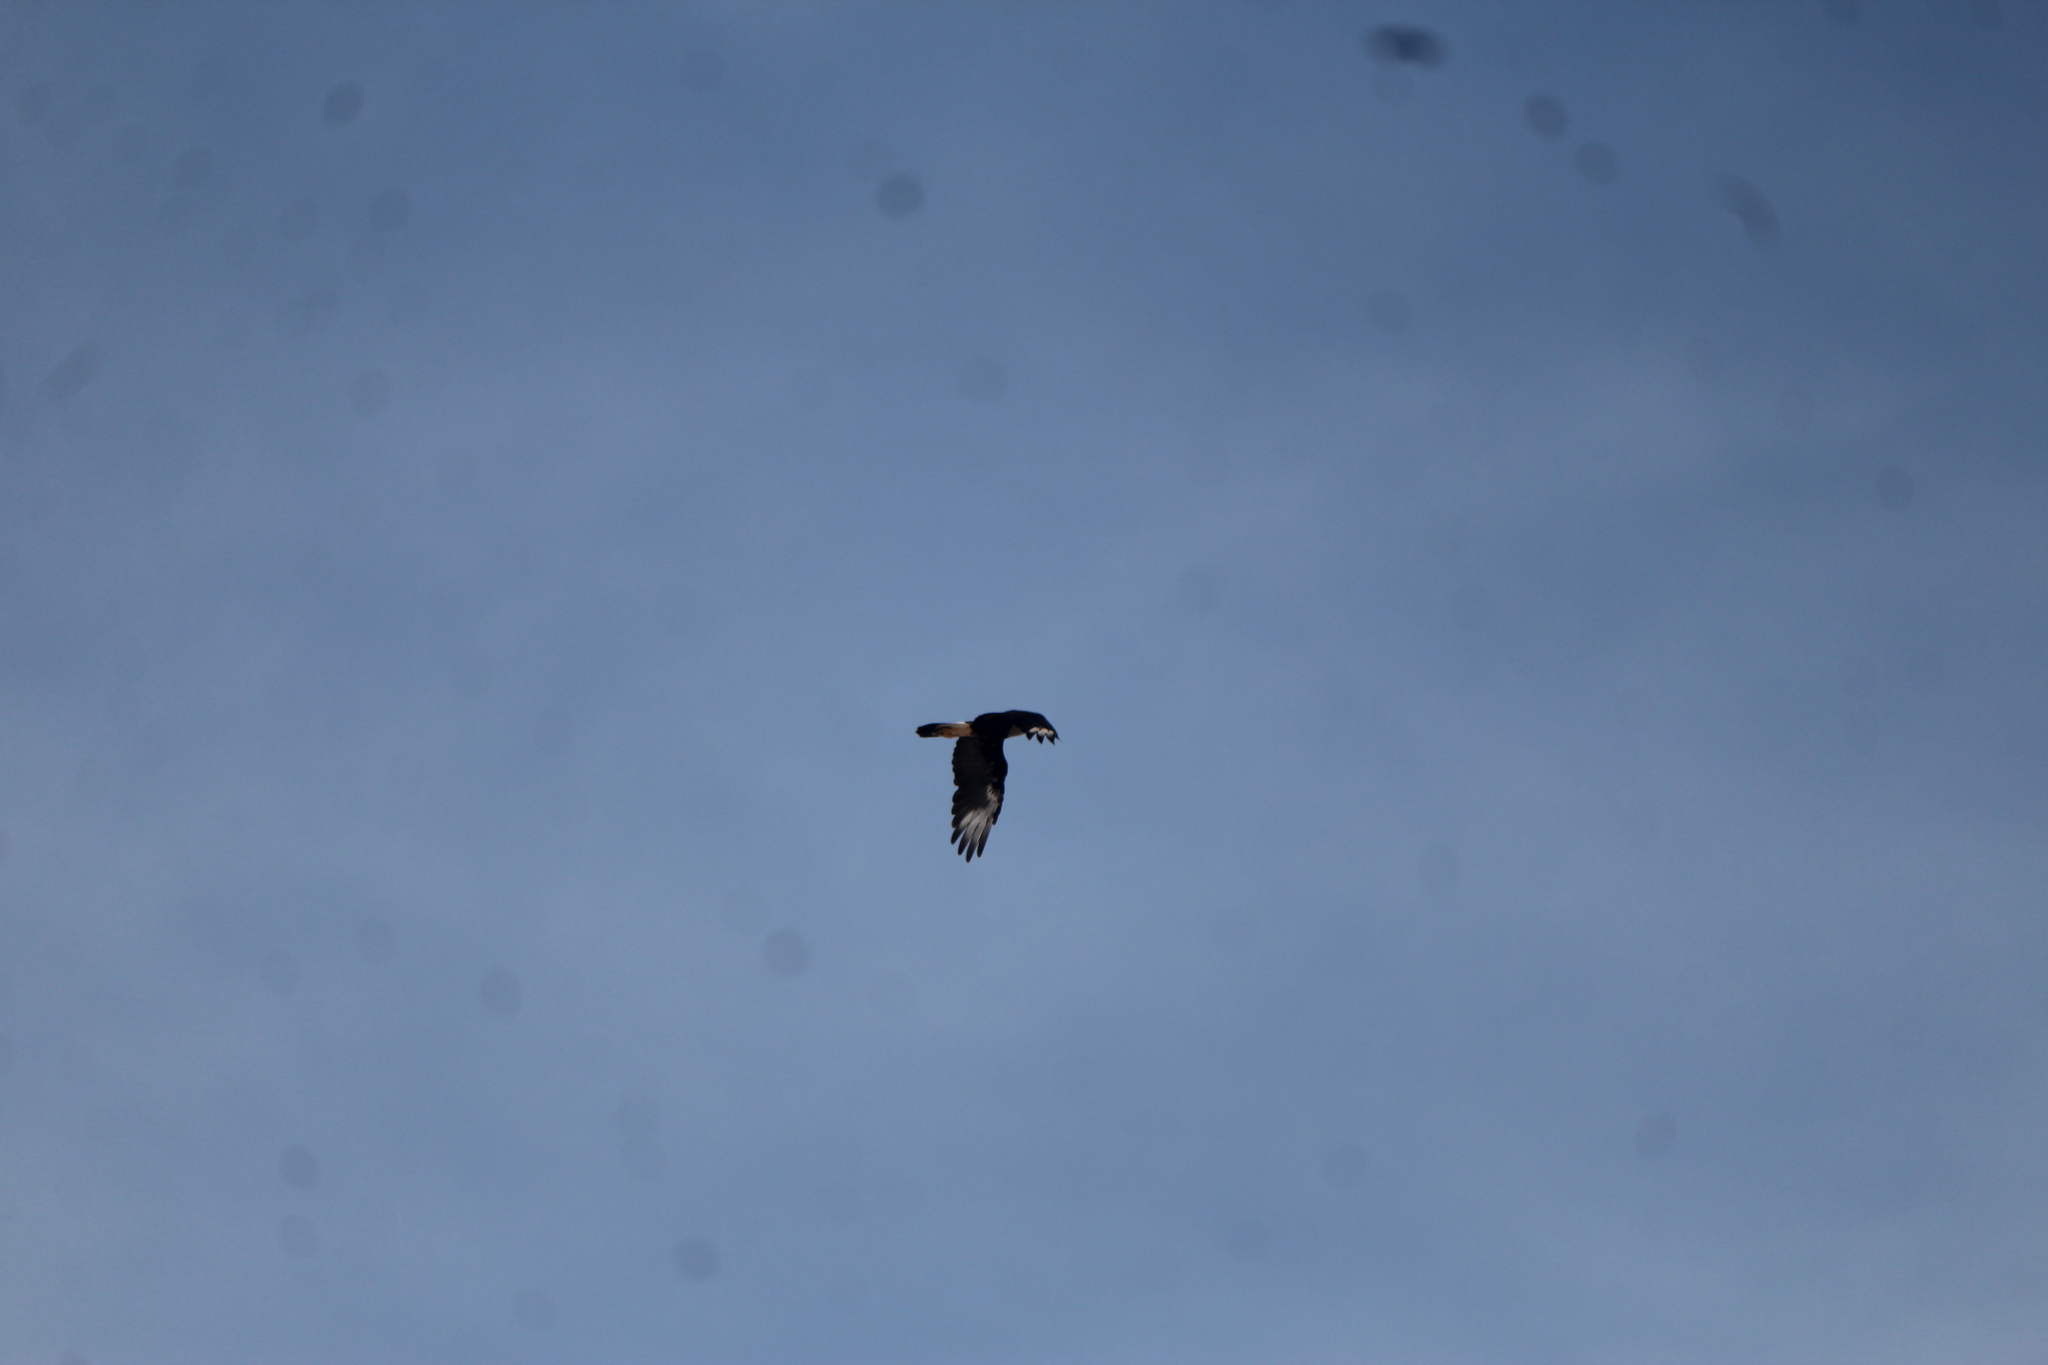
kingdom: Animalia
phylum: Chordata
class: Aves
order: Falconiformes
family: Falconidae
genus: Caracara
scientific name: Caracara plancus
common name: Southern caracara
